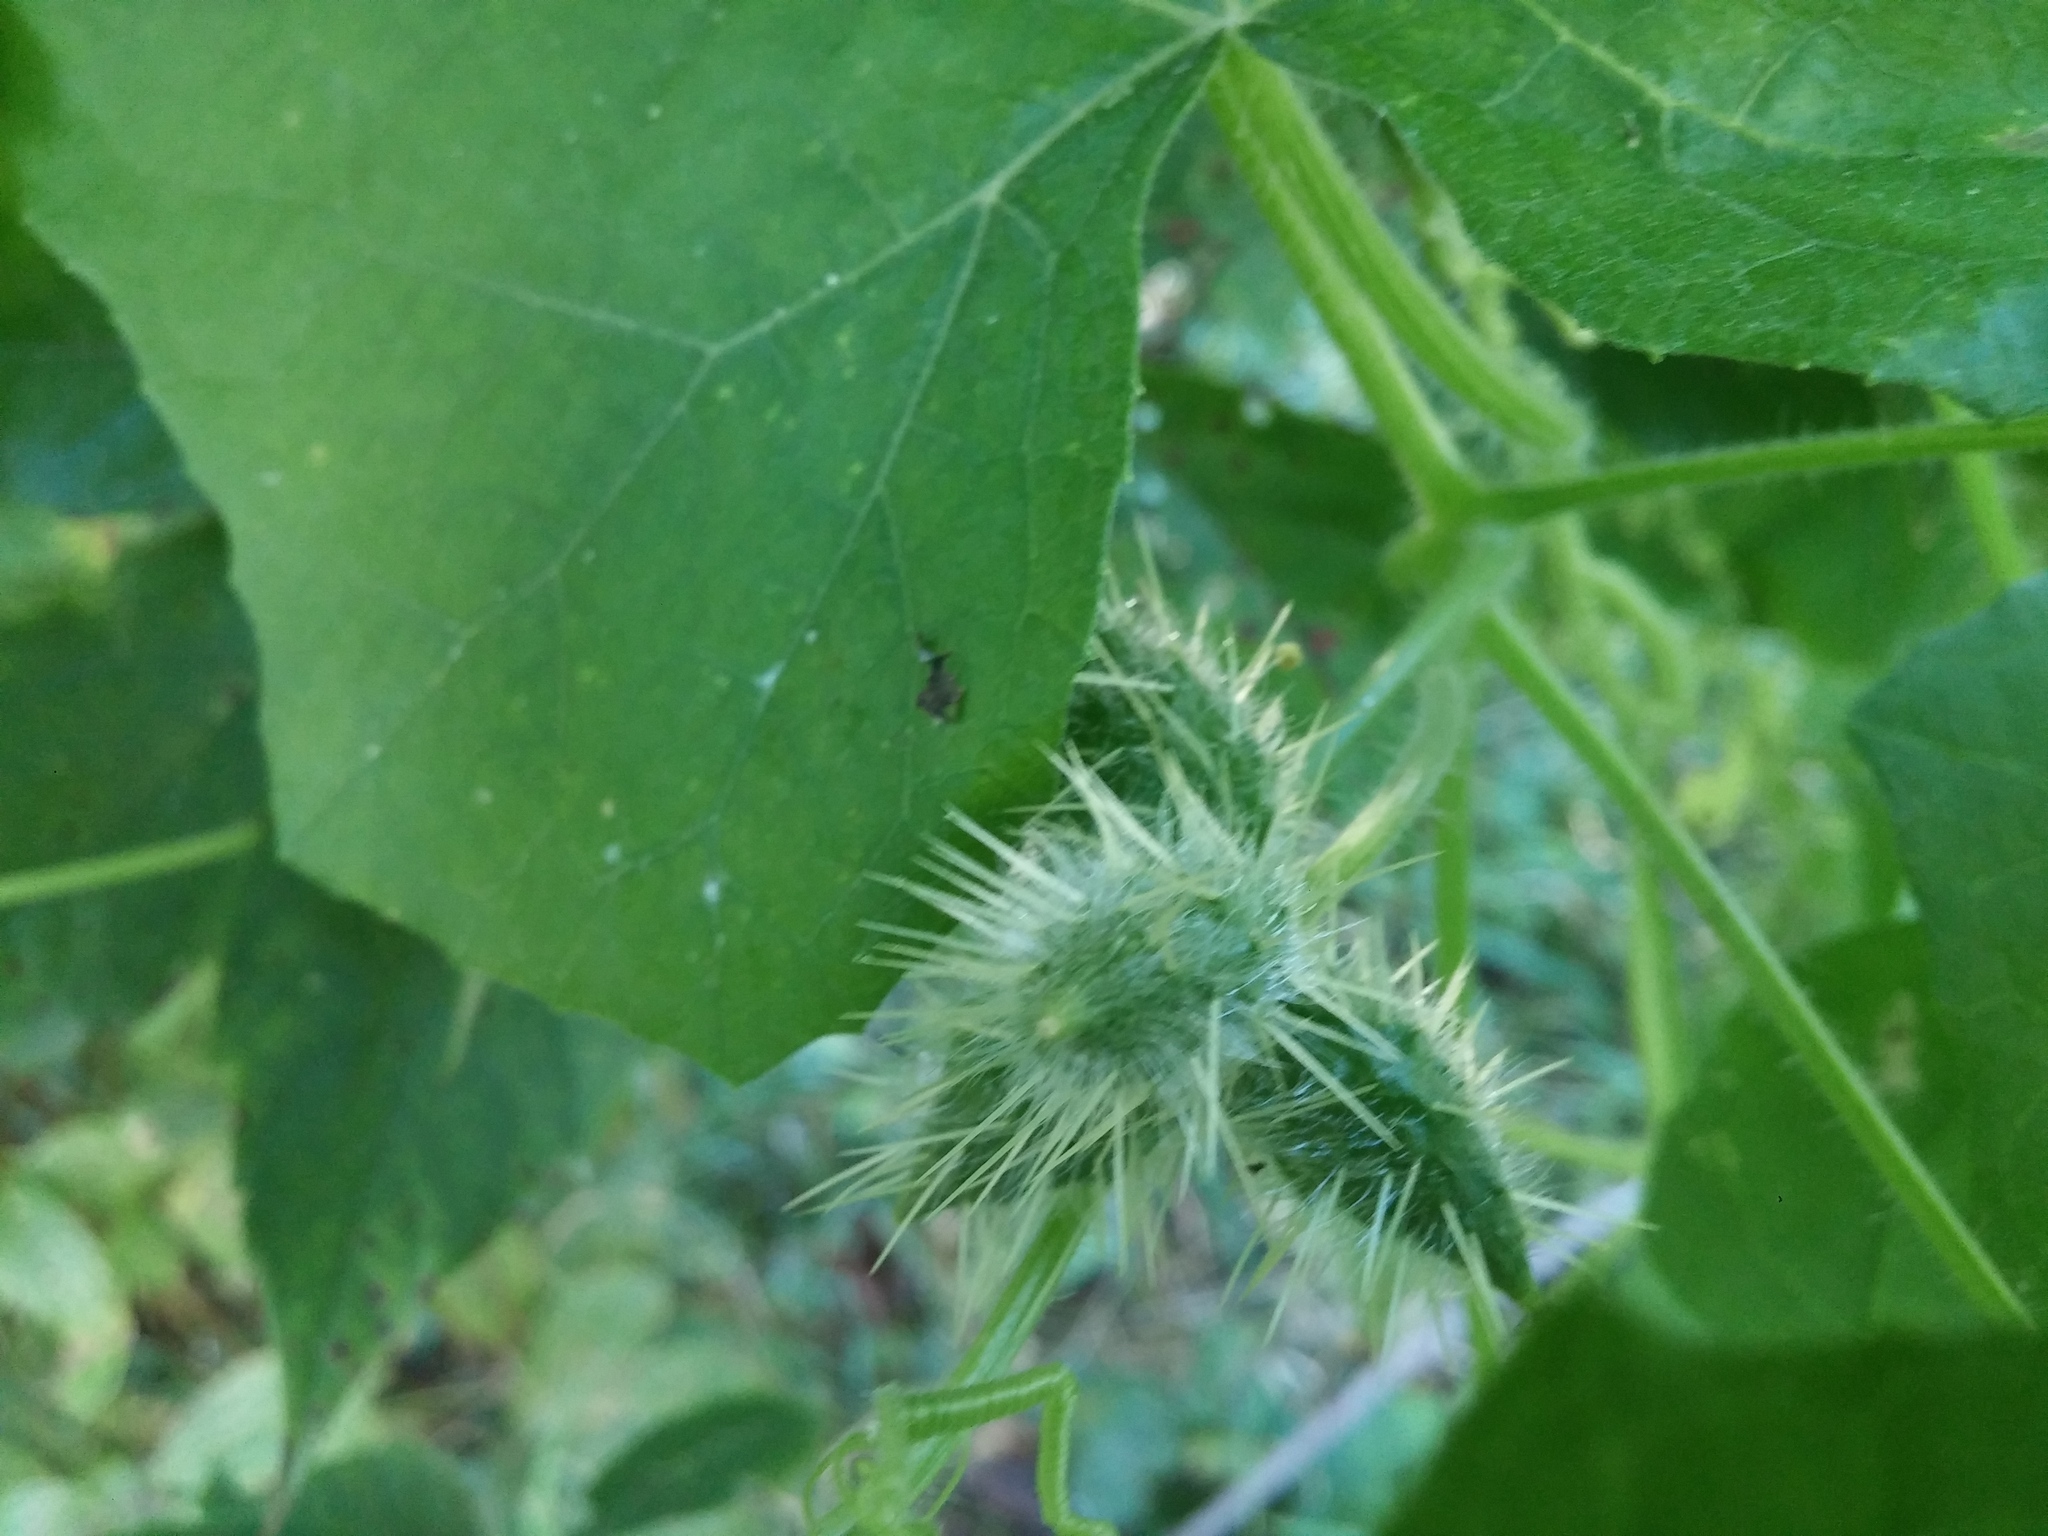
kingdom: Plantae
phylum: Tracheophyta
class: Magnoliopsida
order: Cucurbitales
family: Cucurbitaceae
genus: Sicyos
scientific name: Sicyos angulatus
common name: Angled burr cucumber
